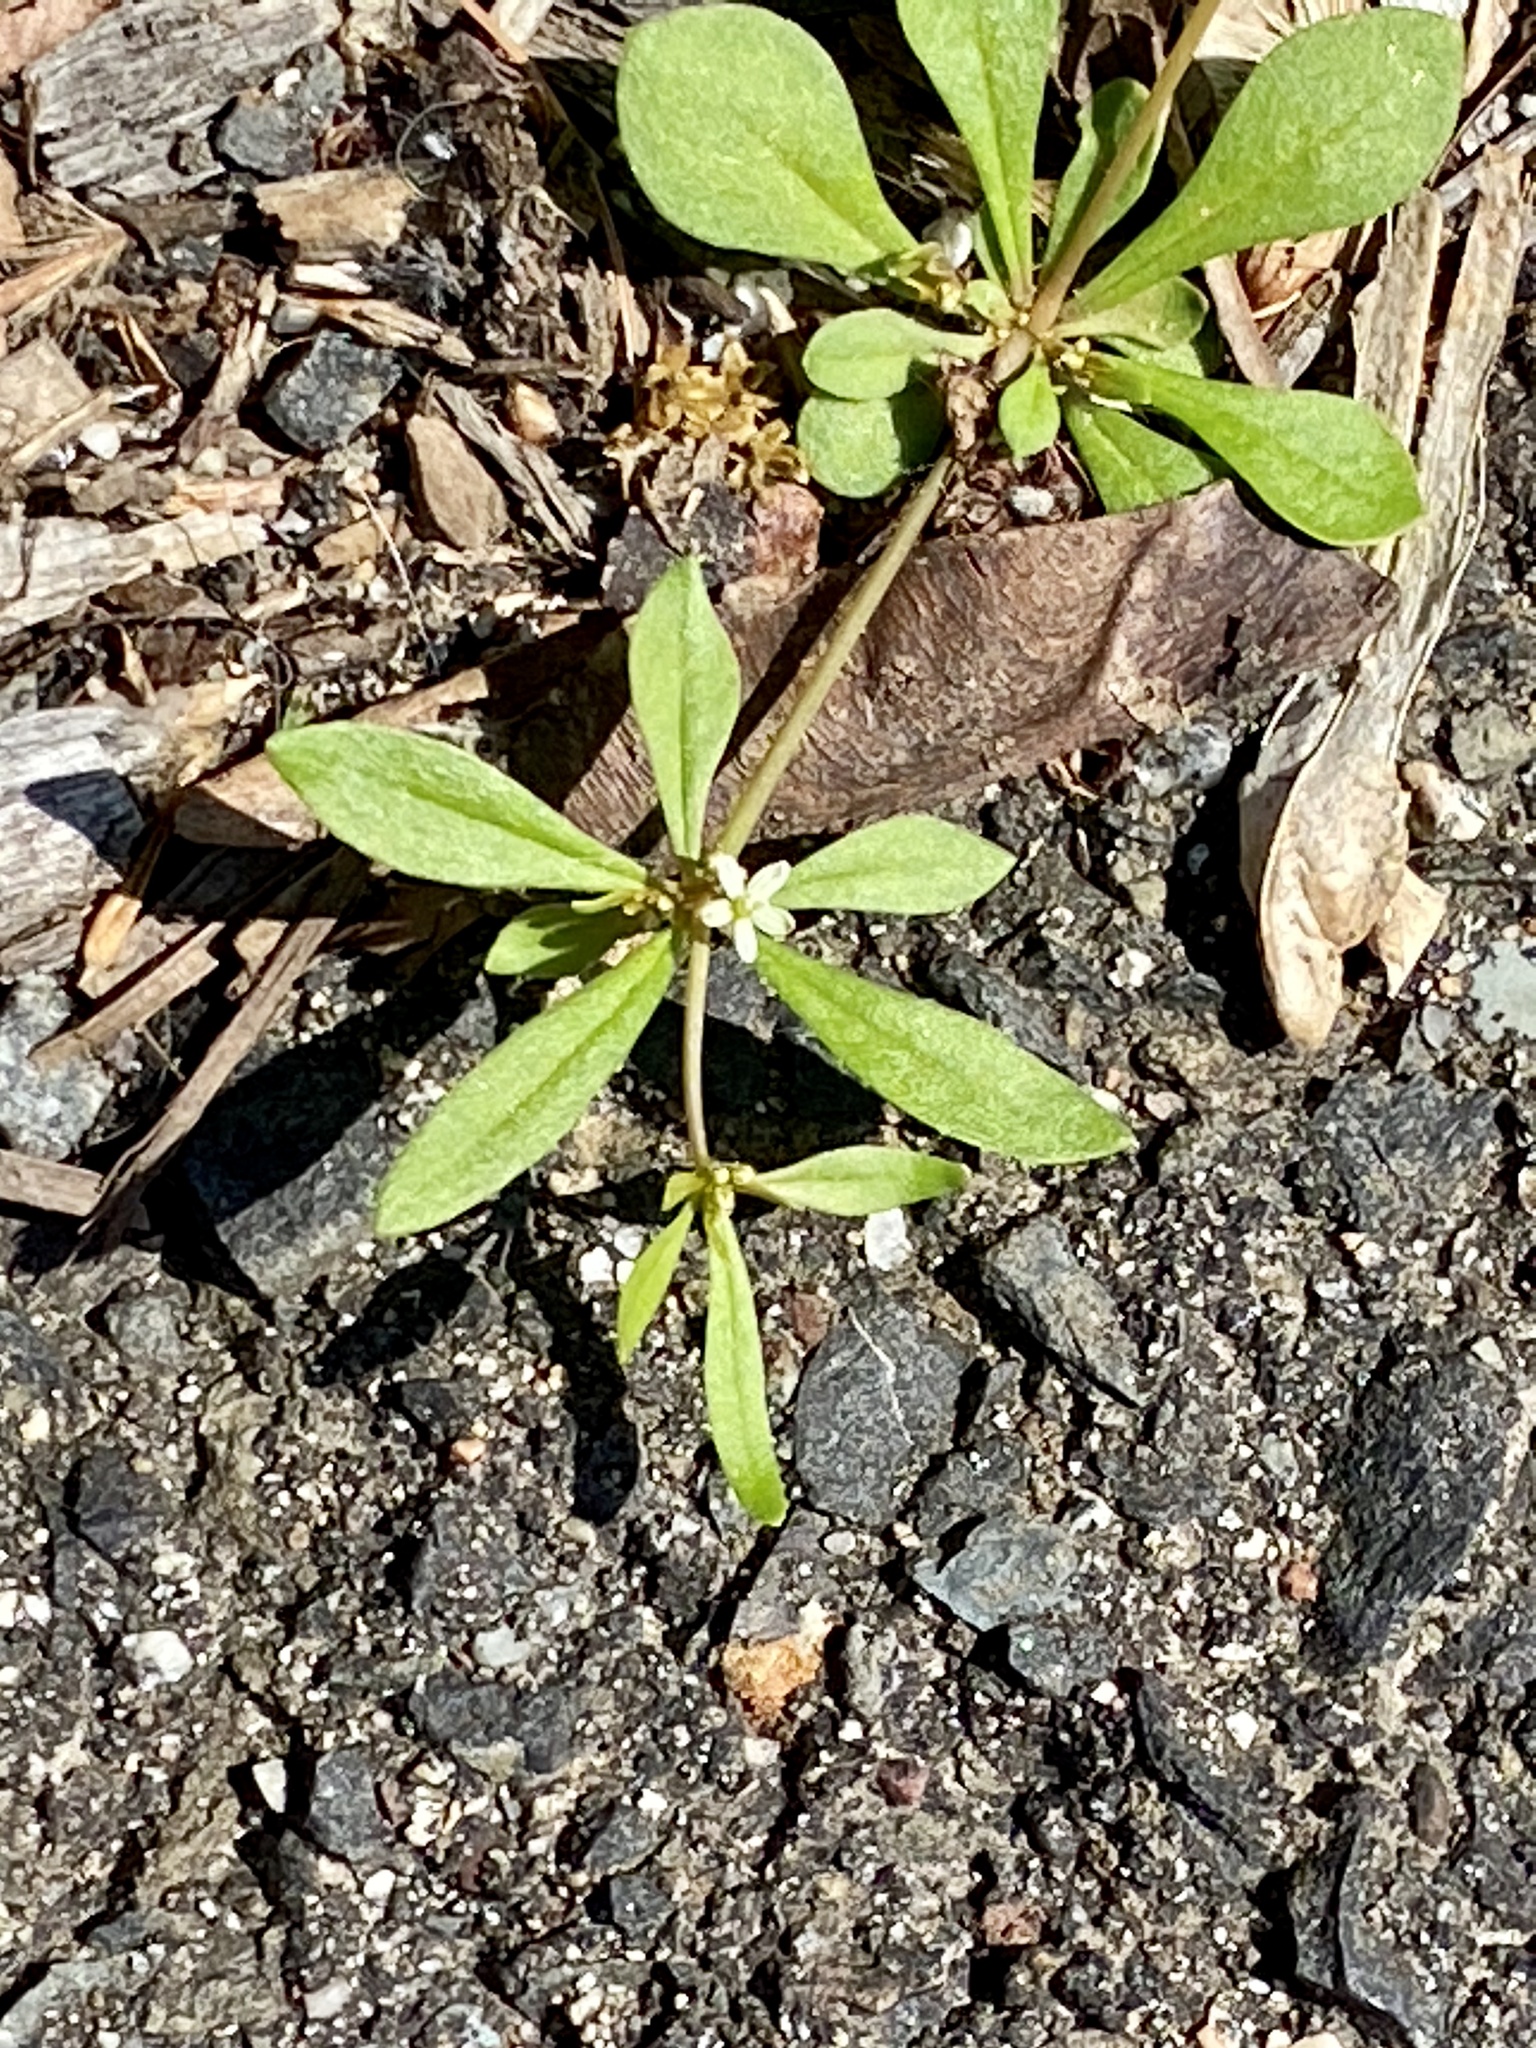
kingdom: Plantae
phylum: Tracheophyta
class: Magnoliopsida
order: Caryophyllales
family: Molluginaceae
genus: Mollugo
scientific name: Mollugo verticillata
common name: Green carpetweed
